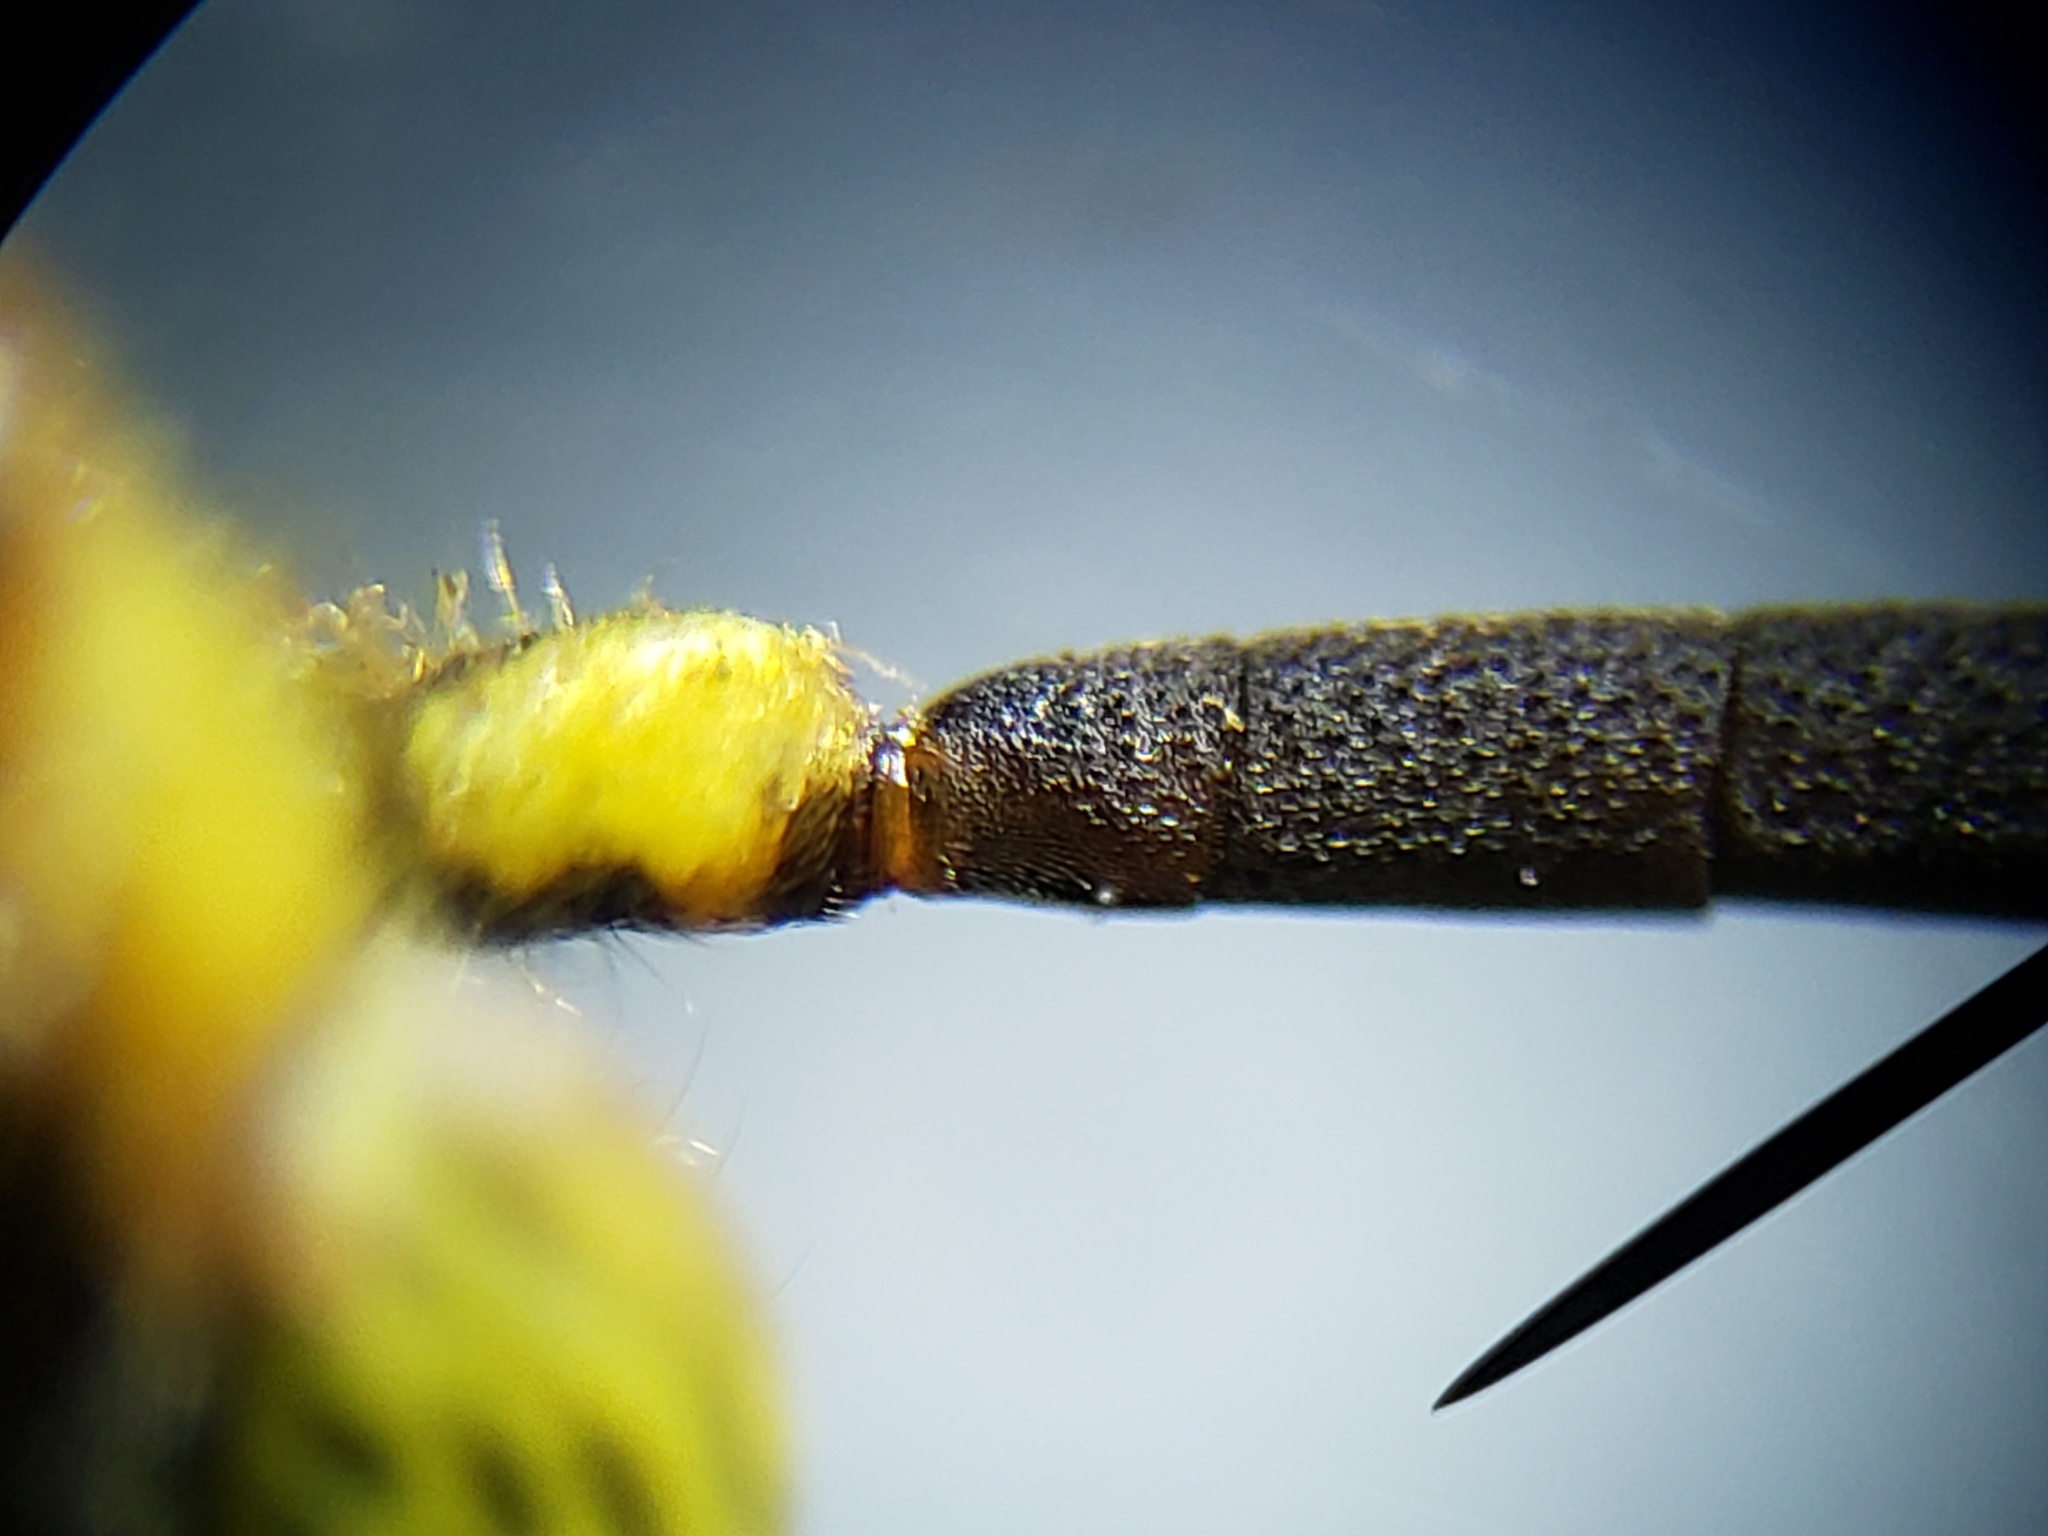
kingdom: Animalia
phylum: Arthropoda
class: Insecta
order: Hymenoptera
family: Tiphiidae
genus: Myzinum
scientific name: Myzinum maculatum
